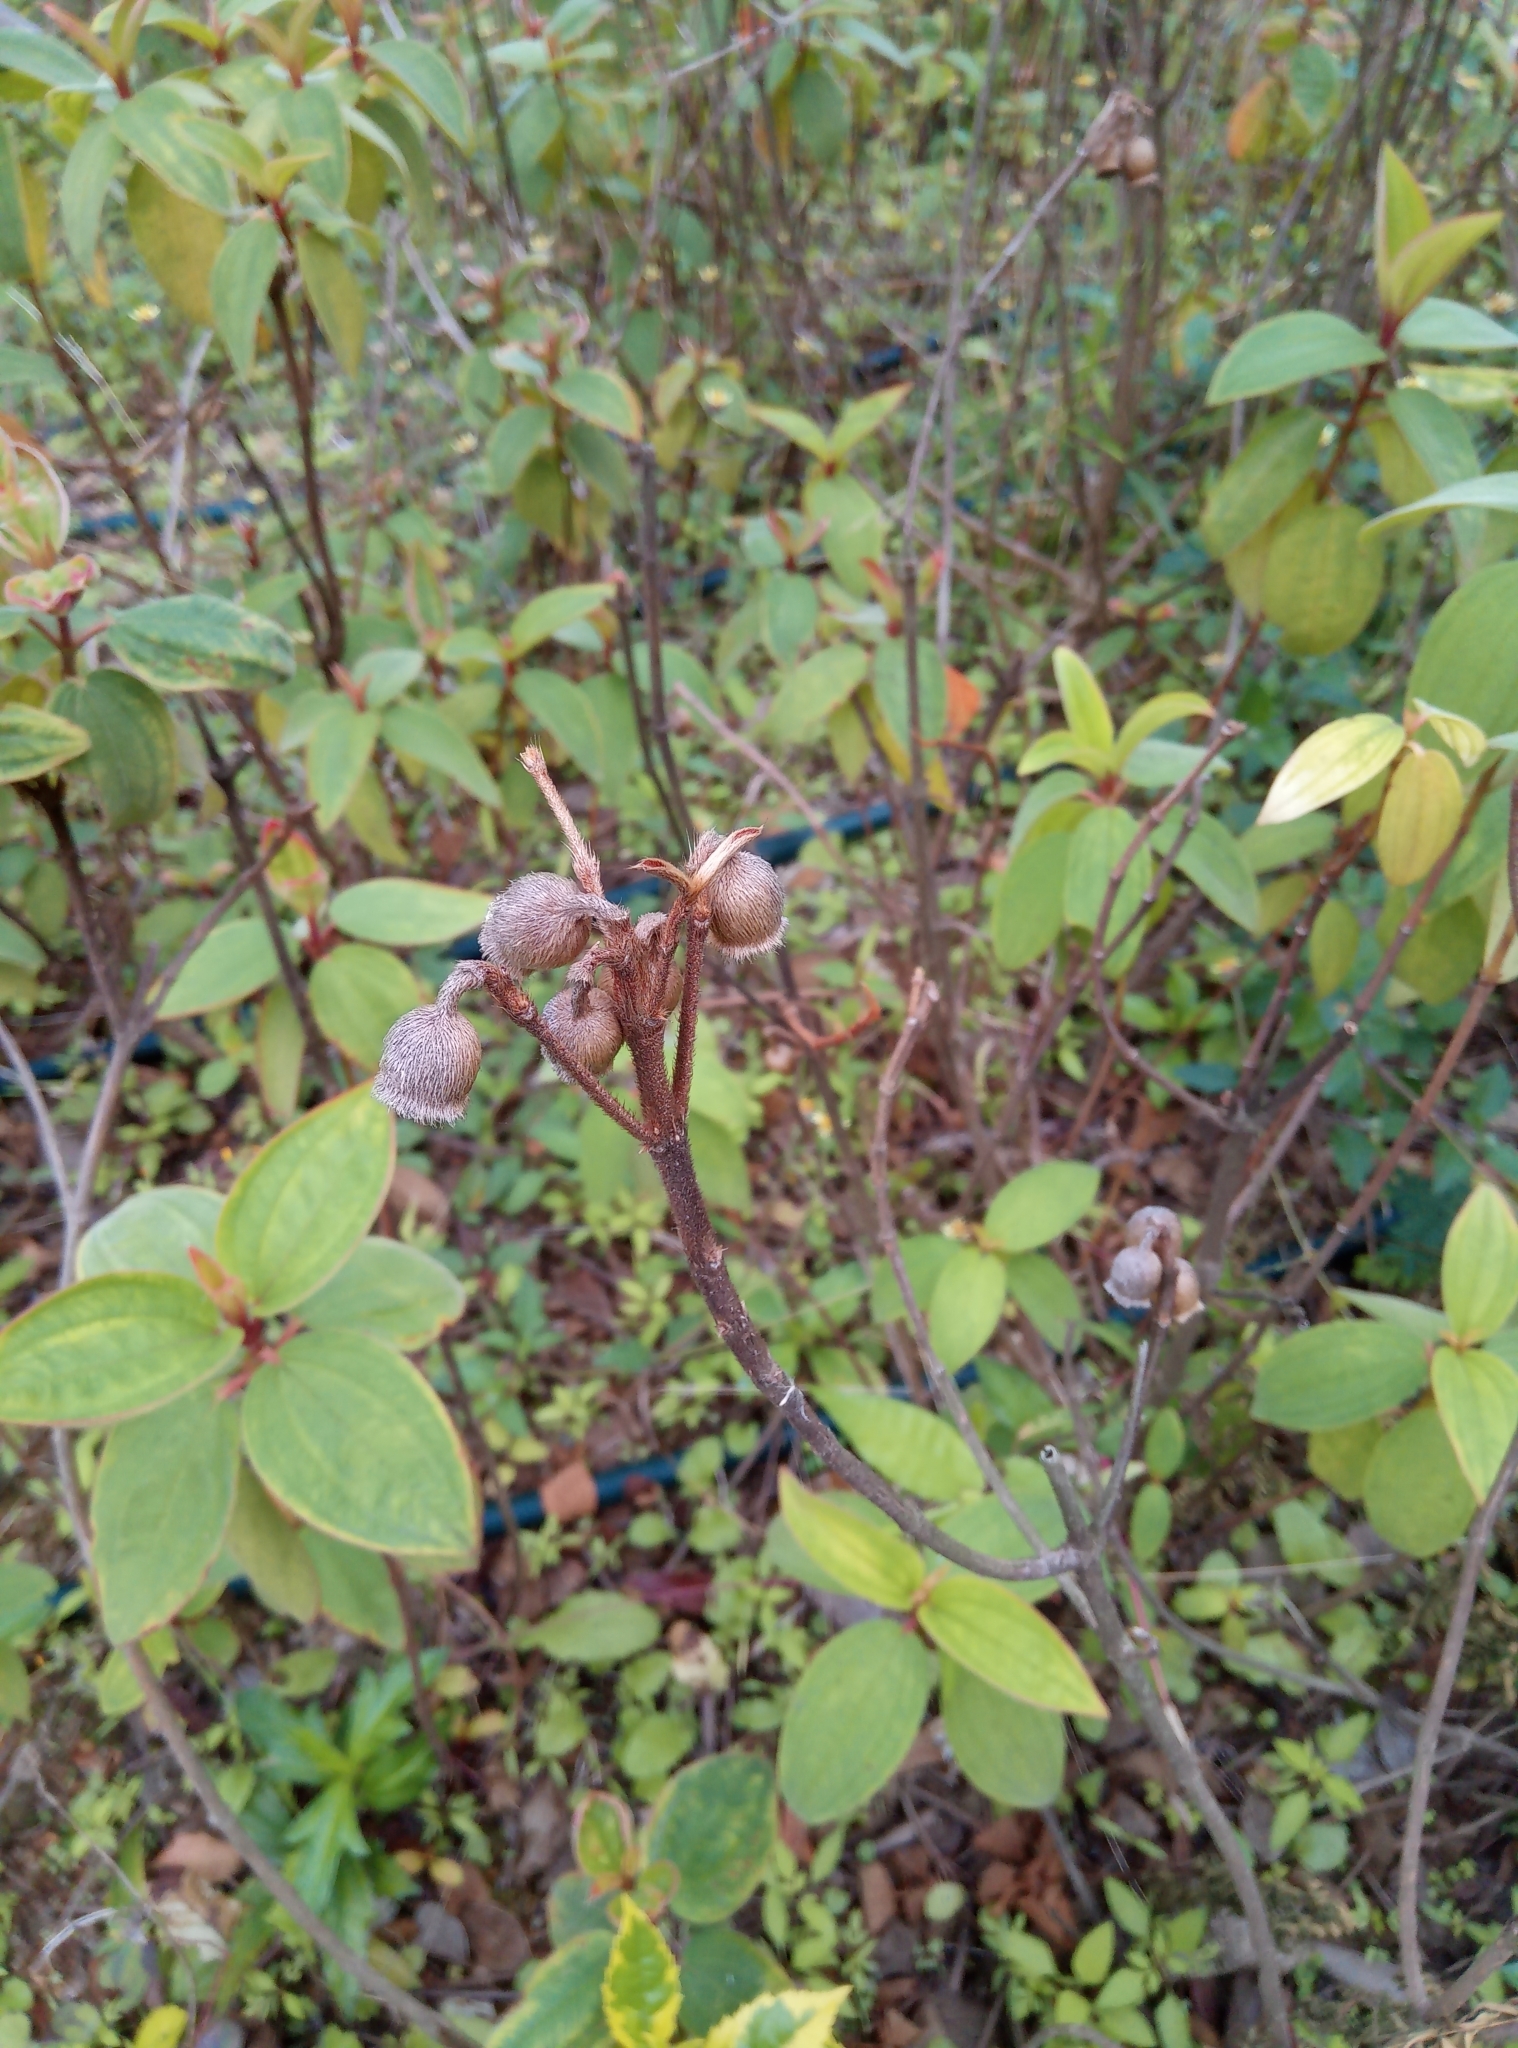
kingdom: Plantae
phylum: Tracheophyta
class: Magnoliopsida
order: Myrtales
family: Melastomataceae
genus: Melastoma
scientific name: Melastoma malabathricum
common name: Indian-rhododendron
